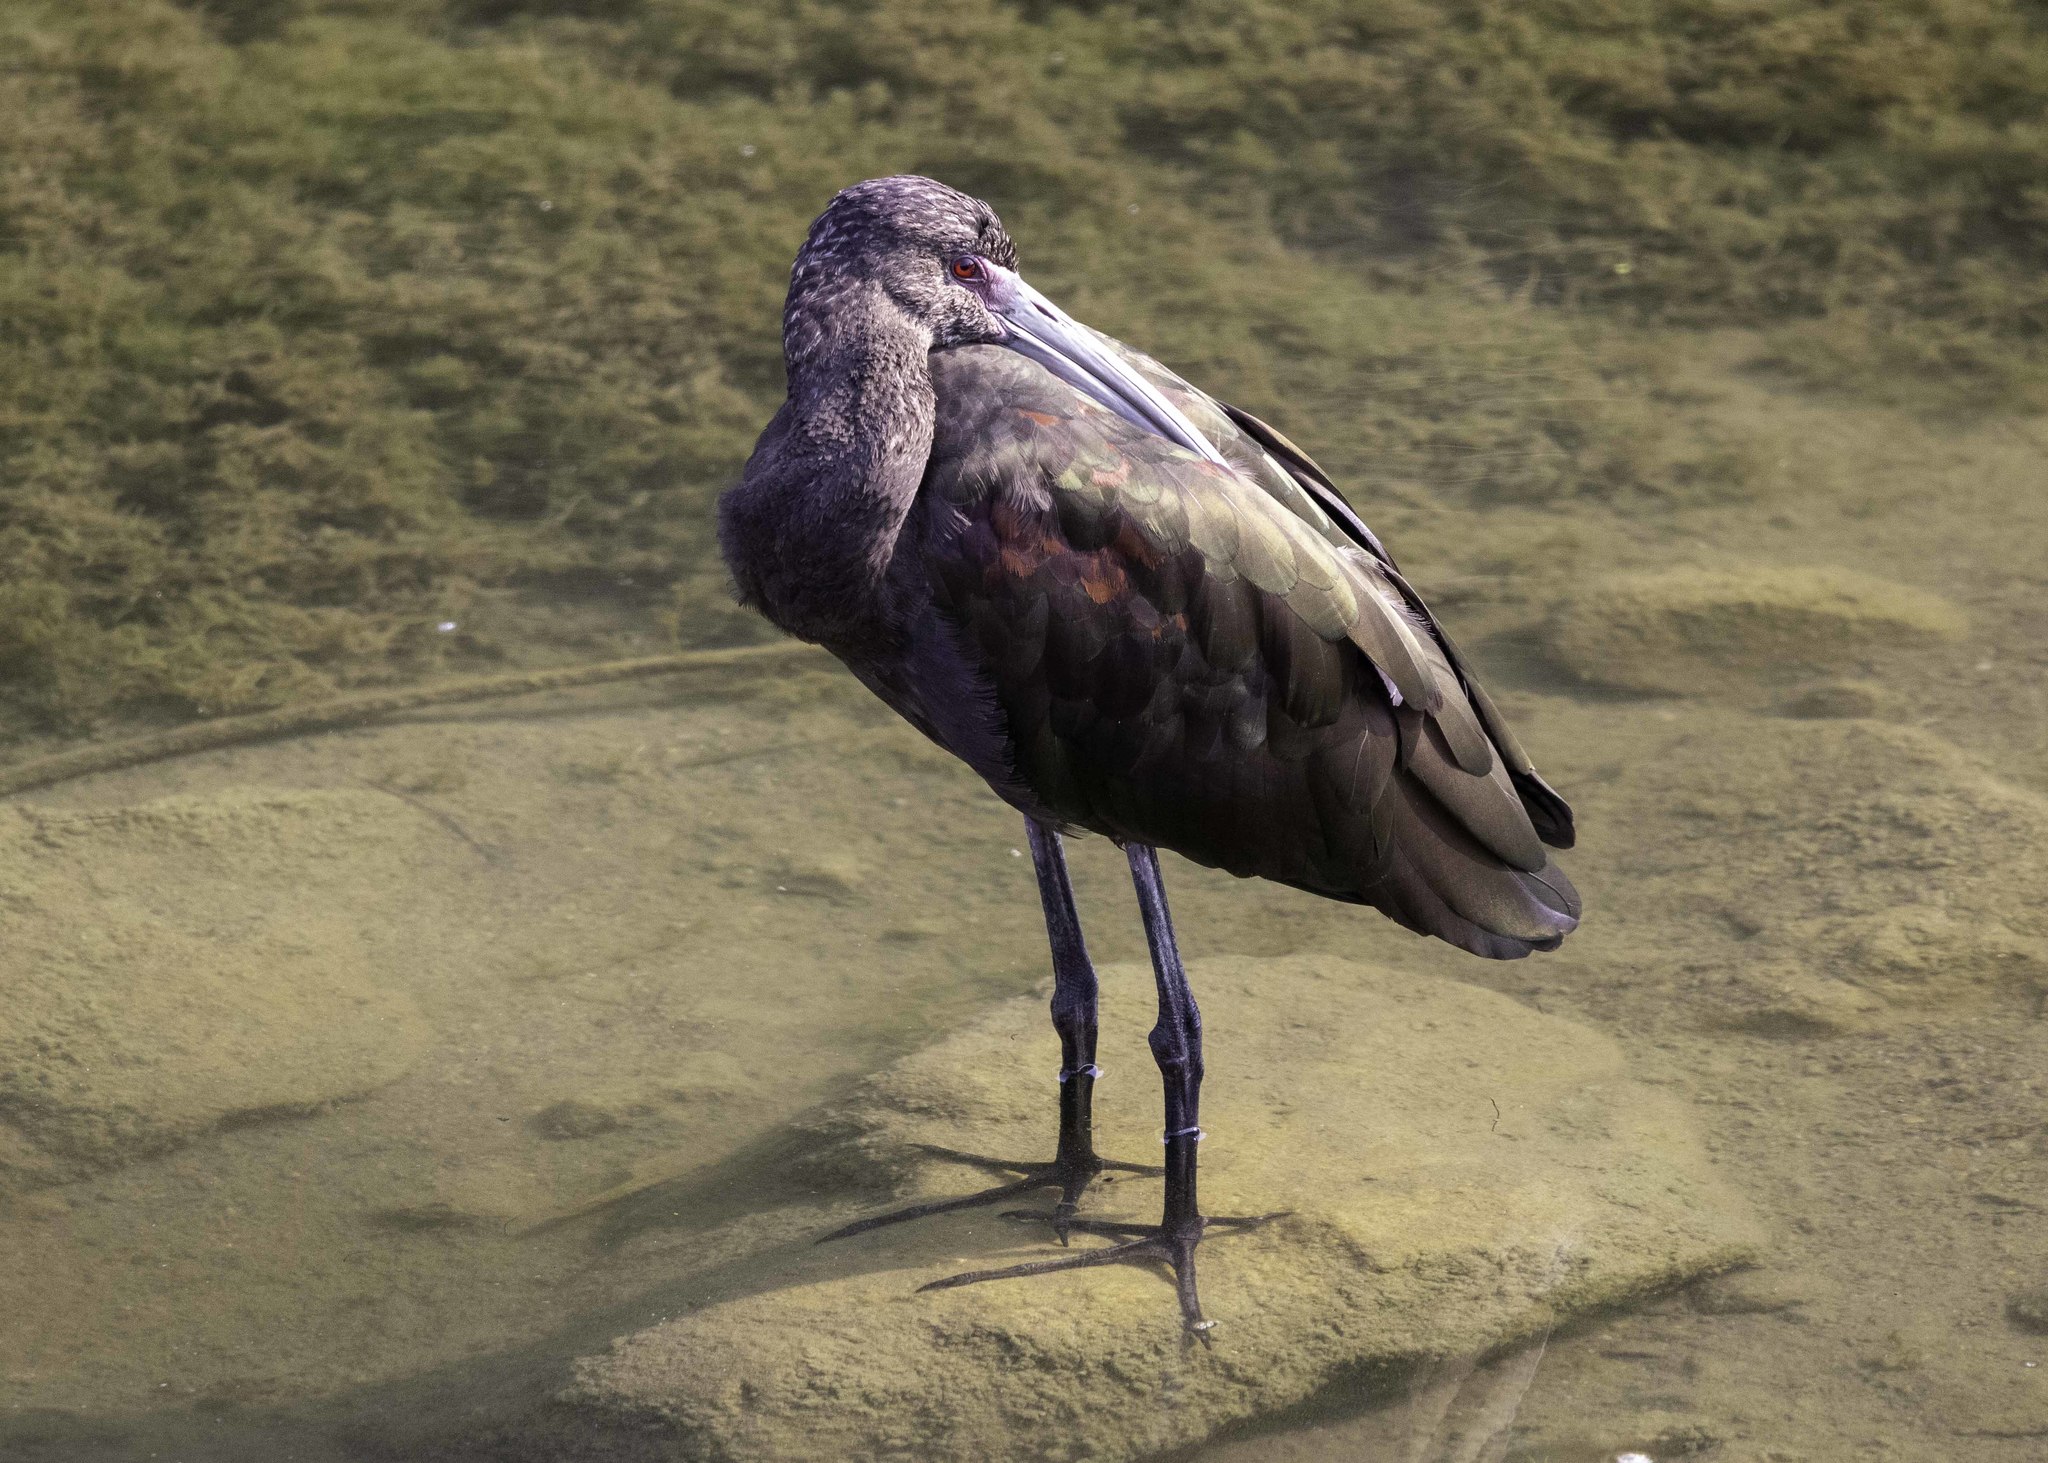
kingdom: Animalia
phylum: Chordata
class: Aves
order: Pelecaniformes
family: Threskiornithidae
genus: Plegadis
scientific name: Plegadis chihi
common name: White-faced ibis
